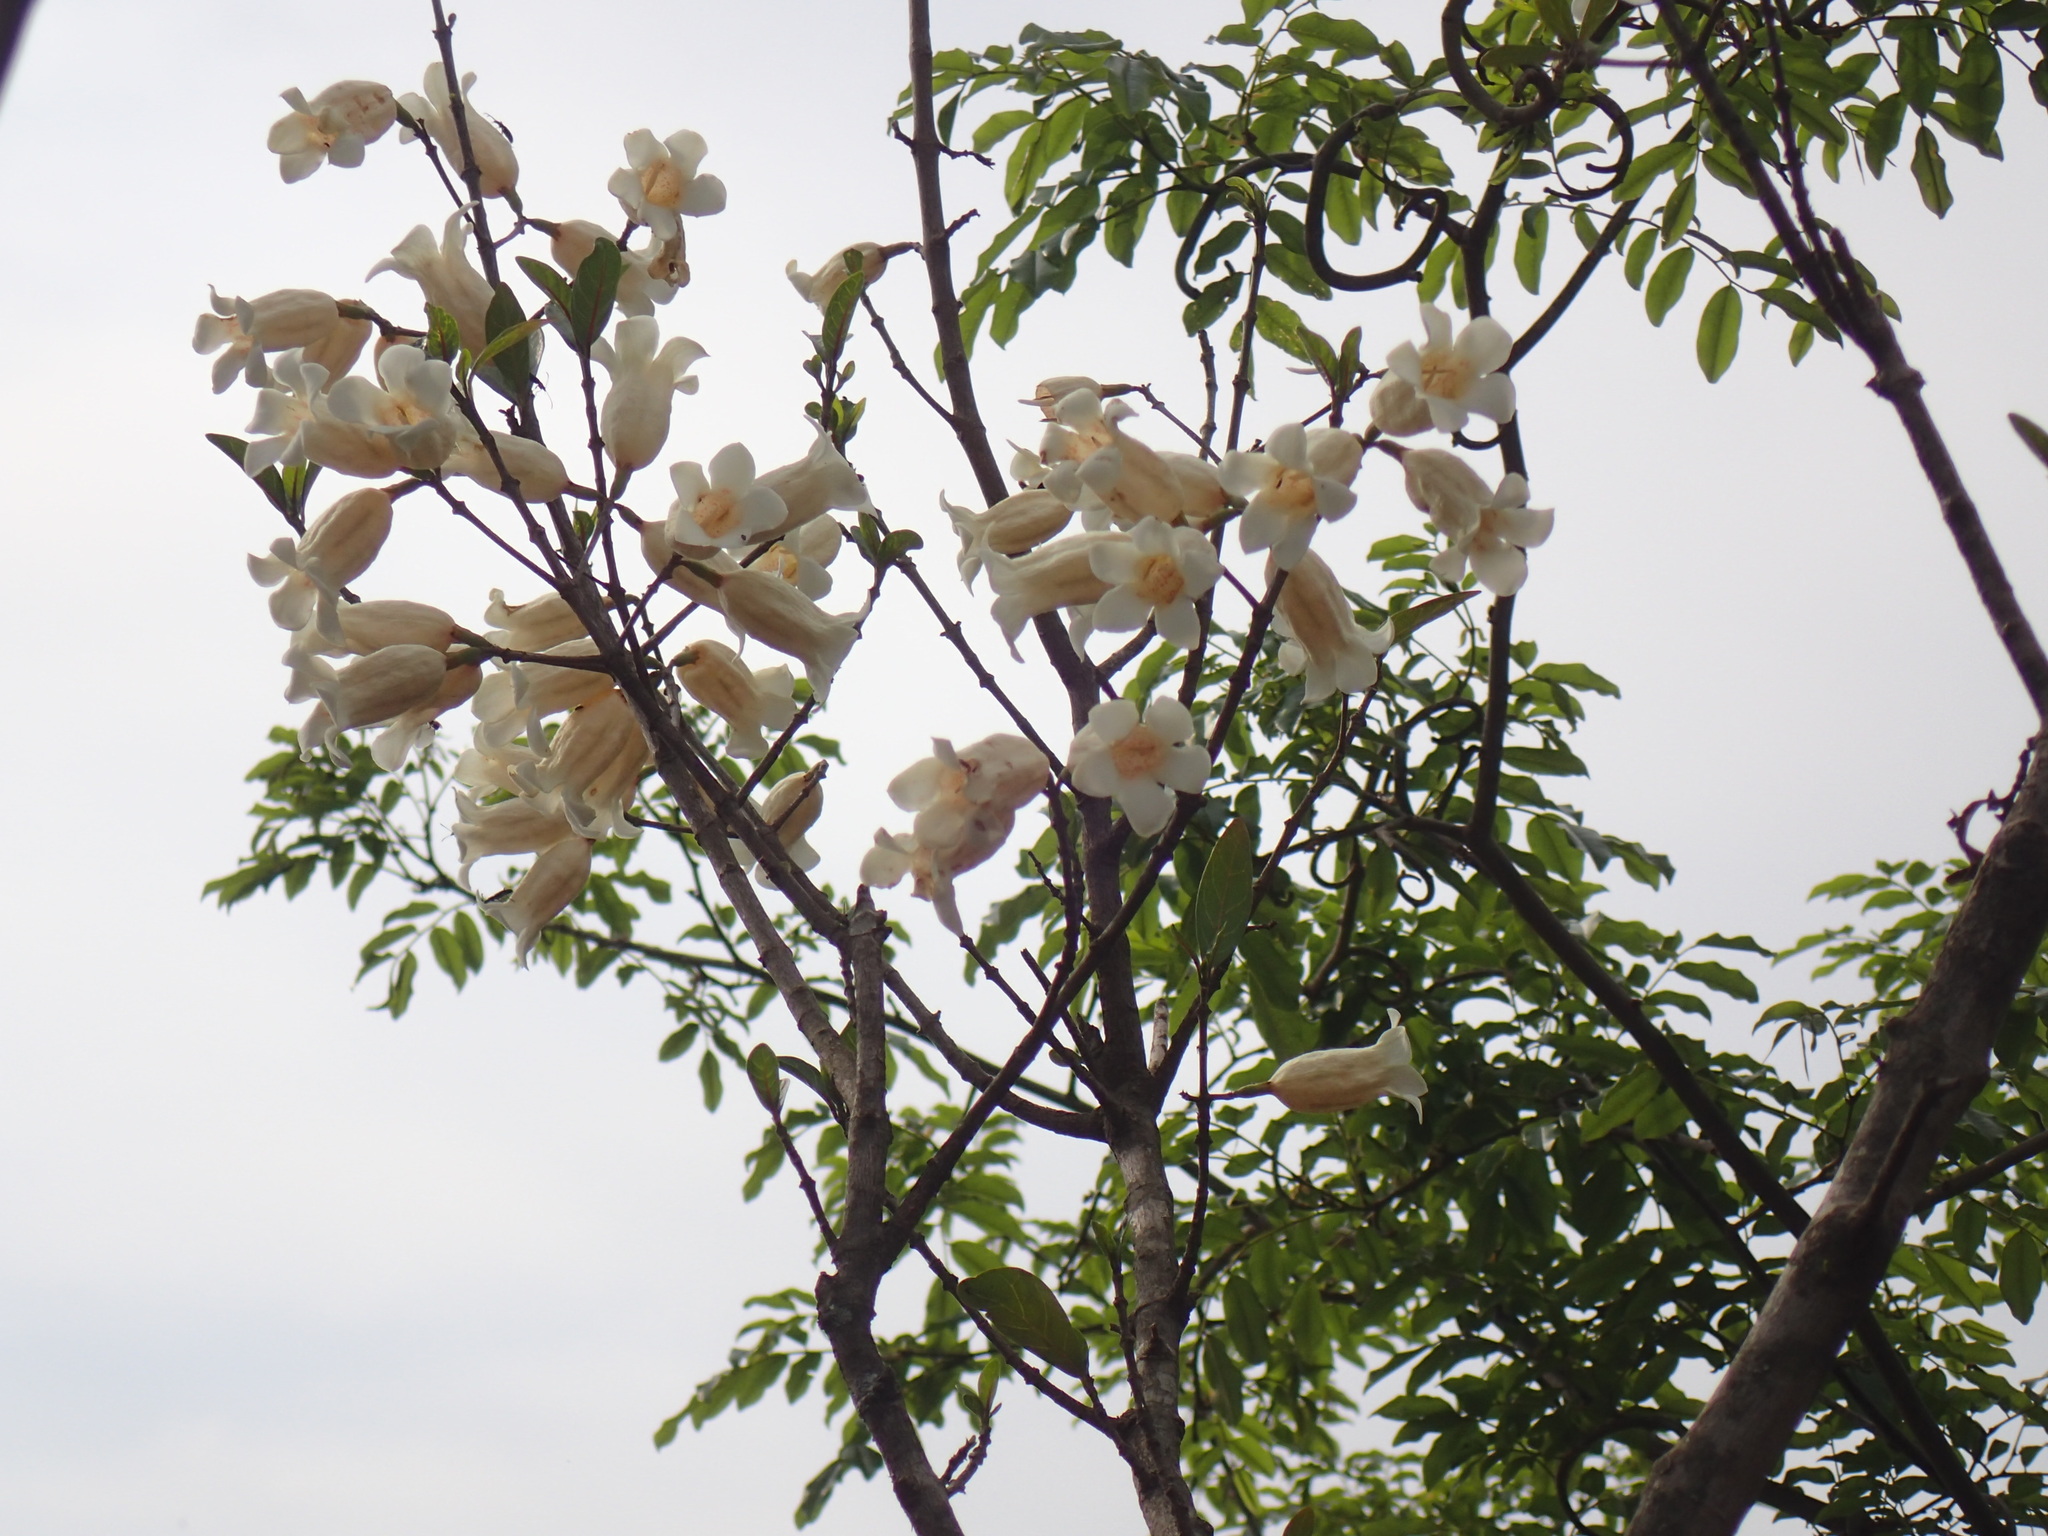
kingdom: Plantae
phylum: Tracheophyta
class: Magnoliopsida
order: Gentianales
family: Rubiaceae
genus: Rothmannia
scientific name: Rothmannia globosa
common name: September bells
